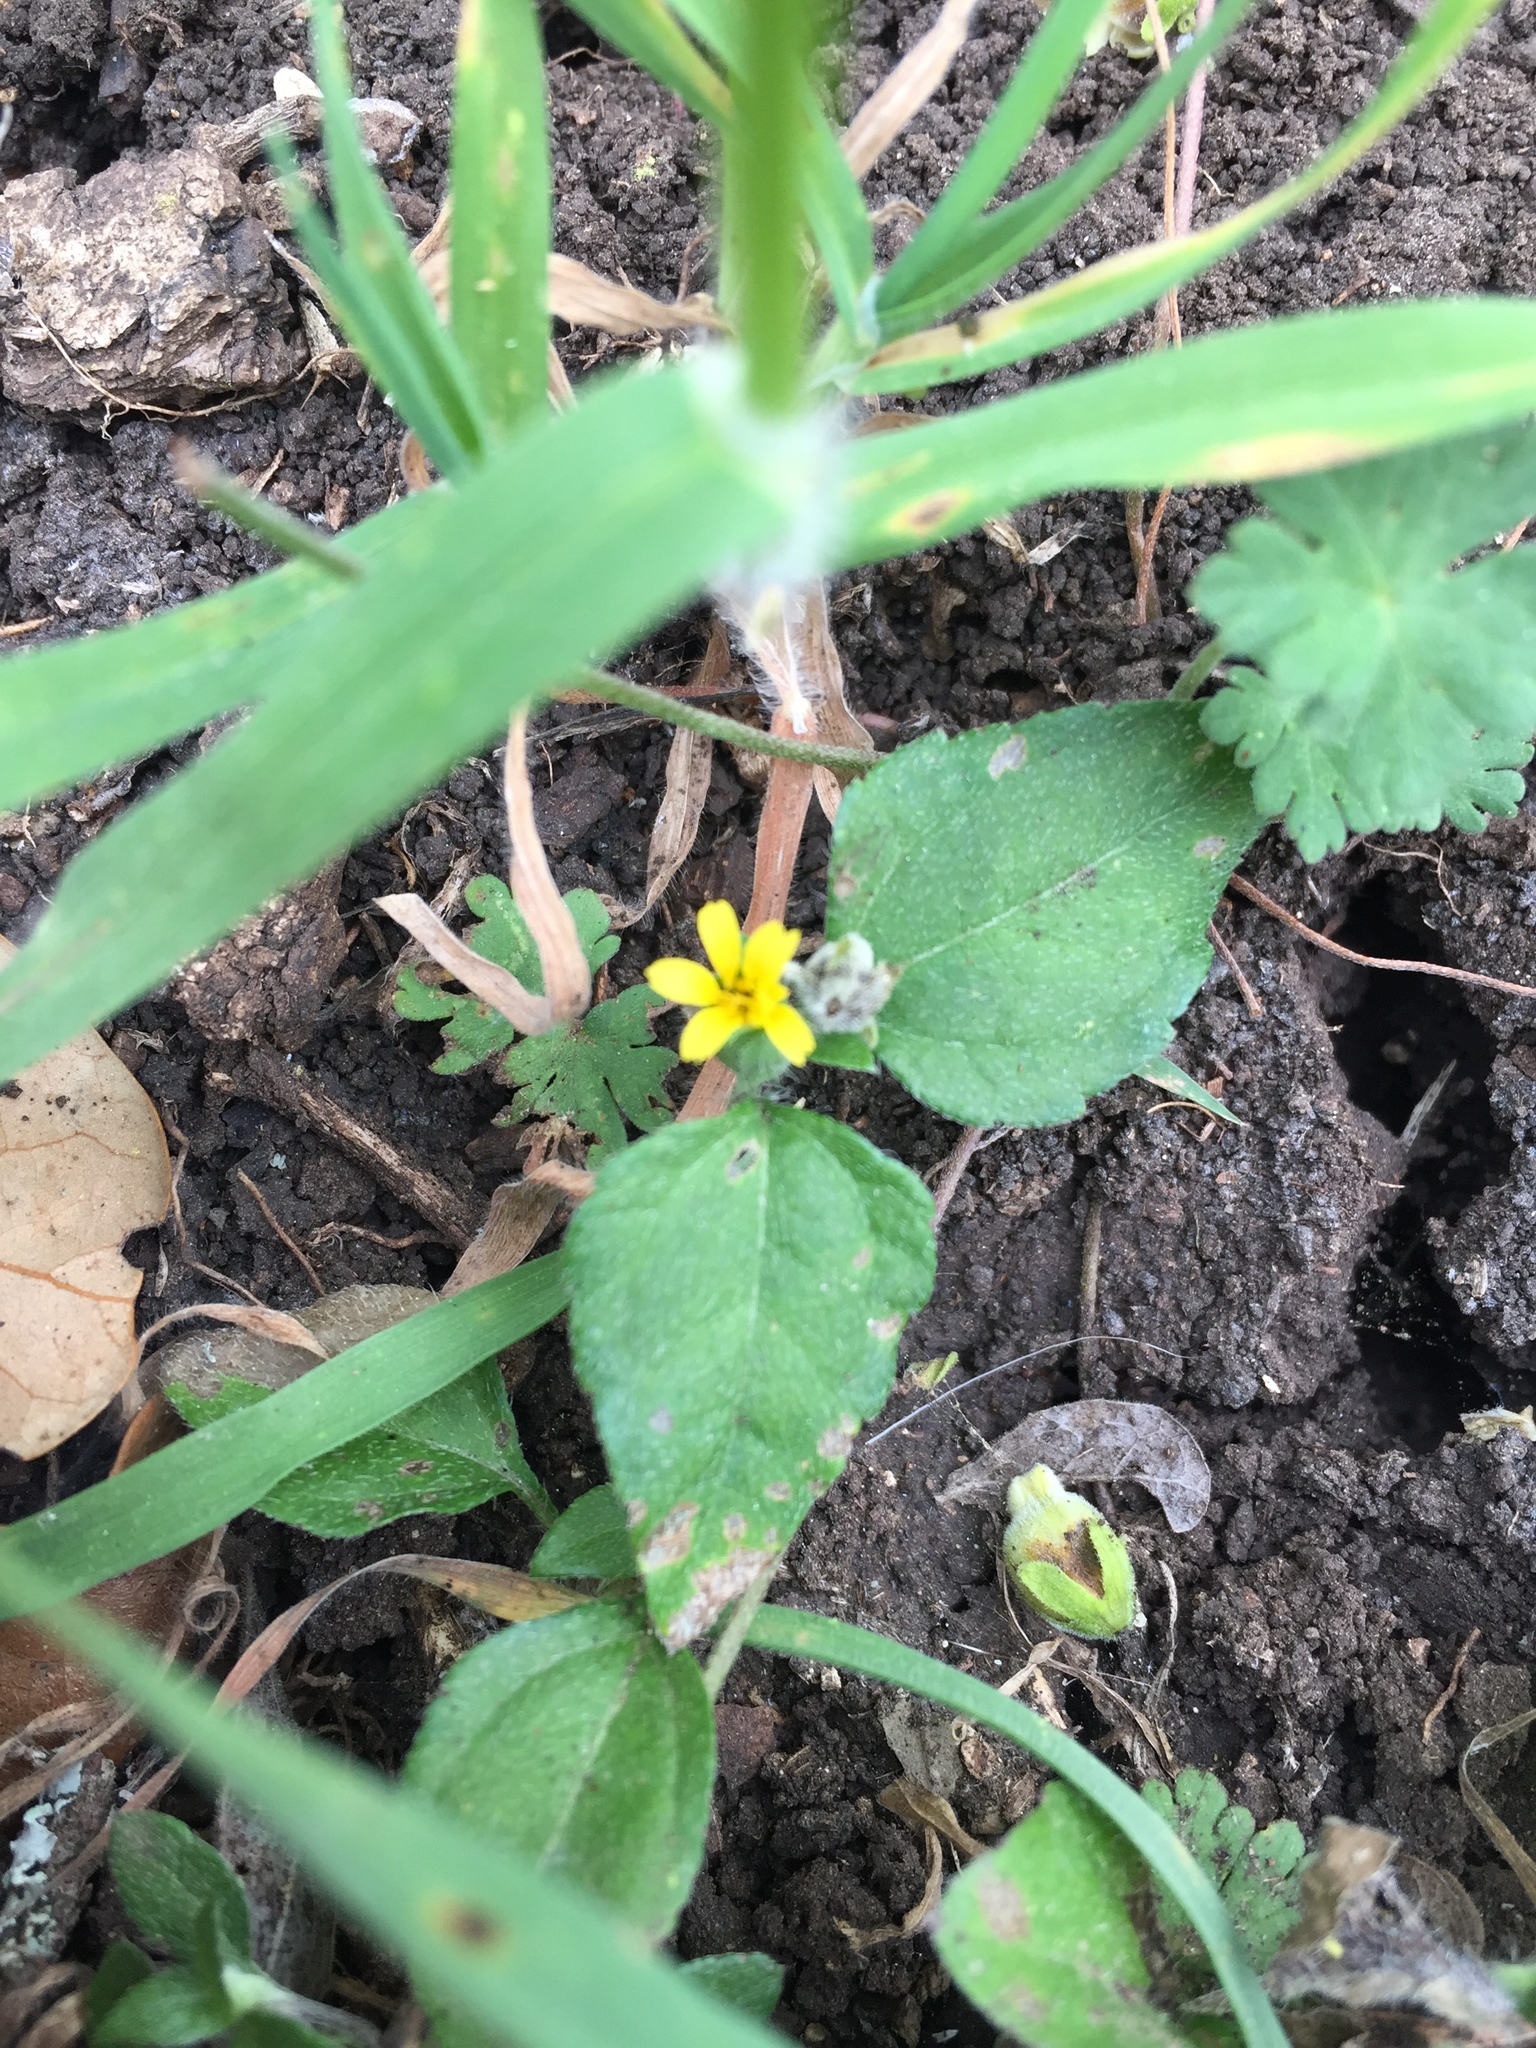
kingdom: Plantae
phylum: Tracheophyta
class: Magnoliopsida
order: Asterales
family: Asteraceae
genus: Calyptocarpus
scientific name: Calyptocarpus vialis
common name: Straggler daisy
